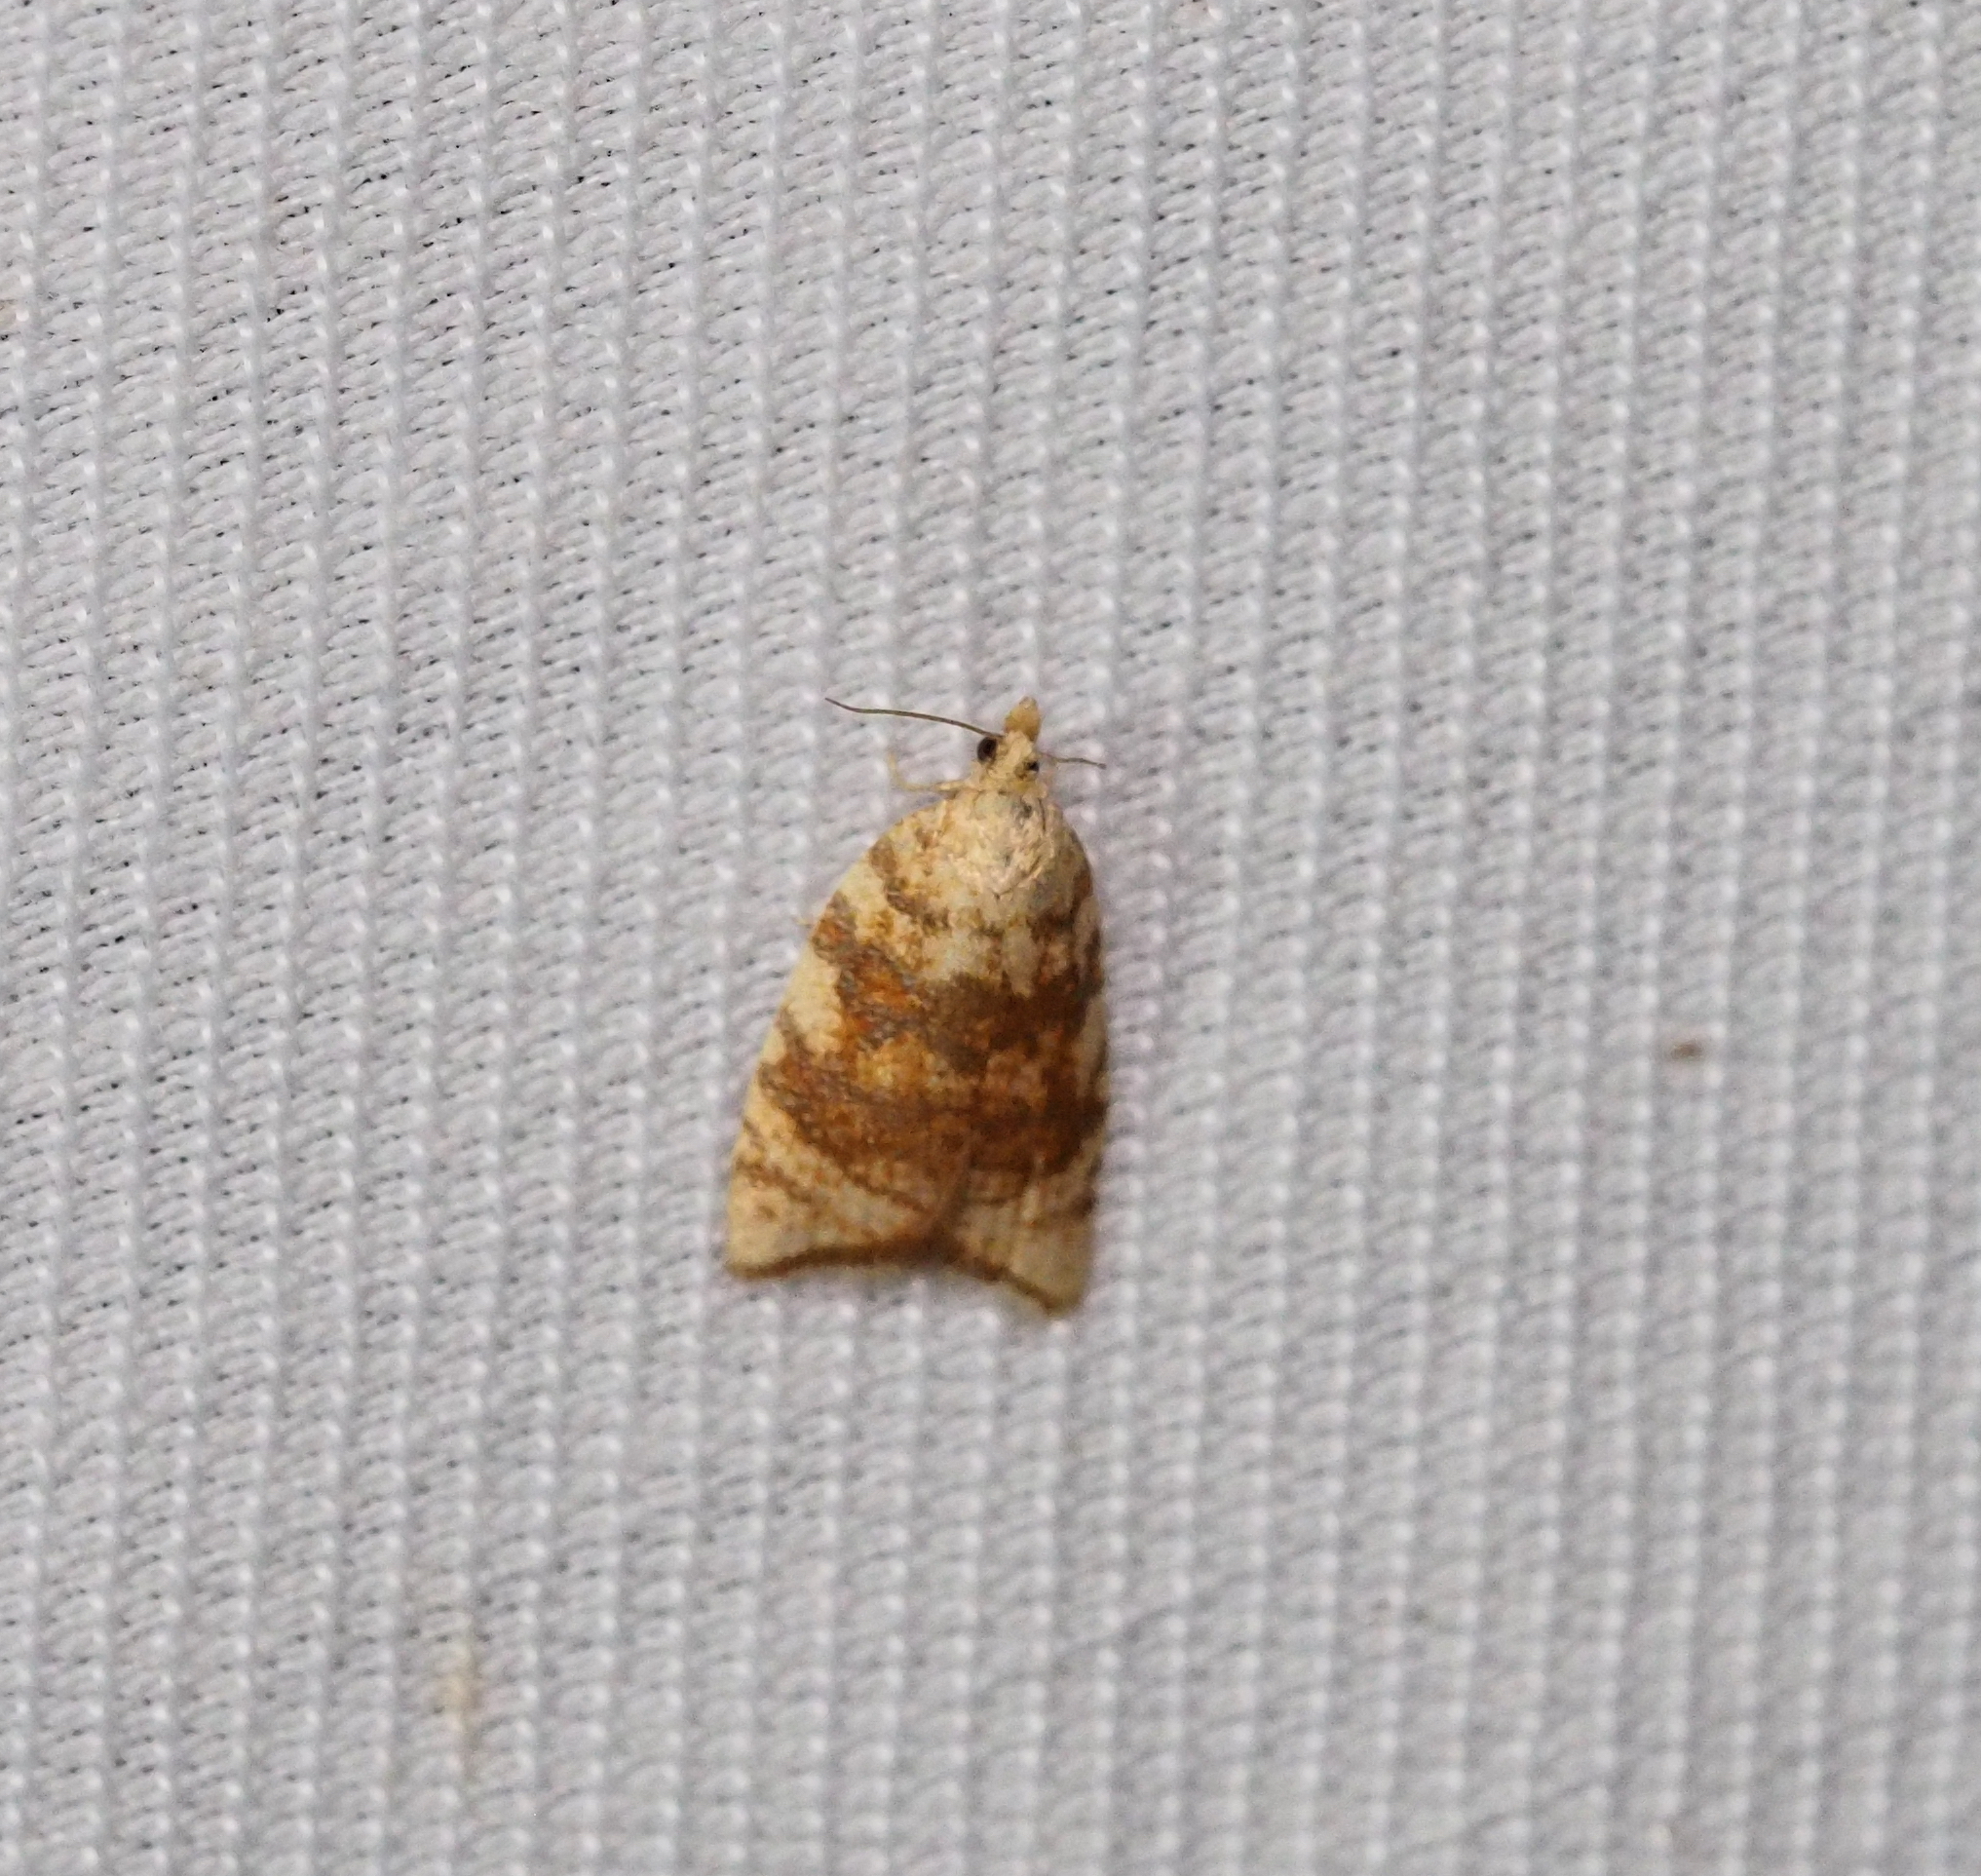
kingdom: Animalia
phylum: Arthropoda
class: Insecta
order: Lepidoptera
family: Tortricidae
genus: Aleimma
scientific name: Aleimma loeflingiana
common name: Yellow oak button
